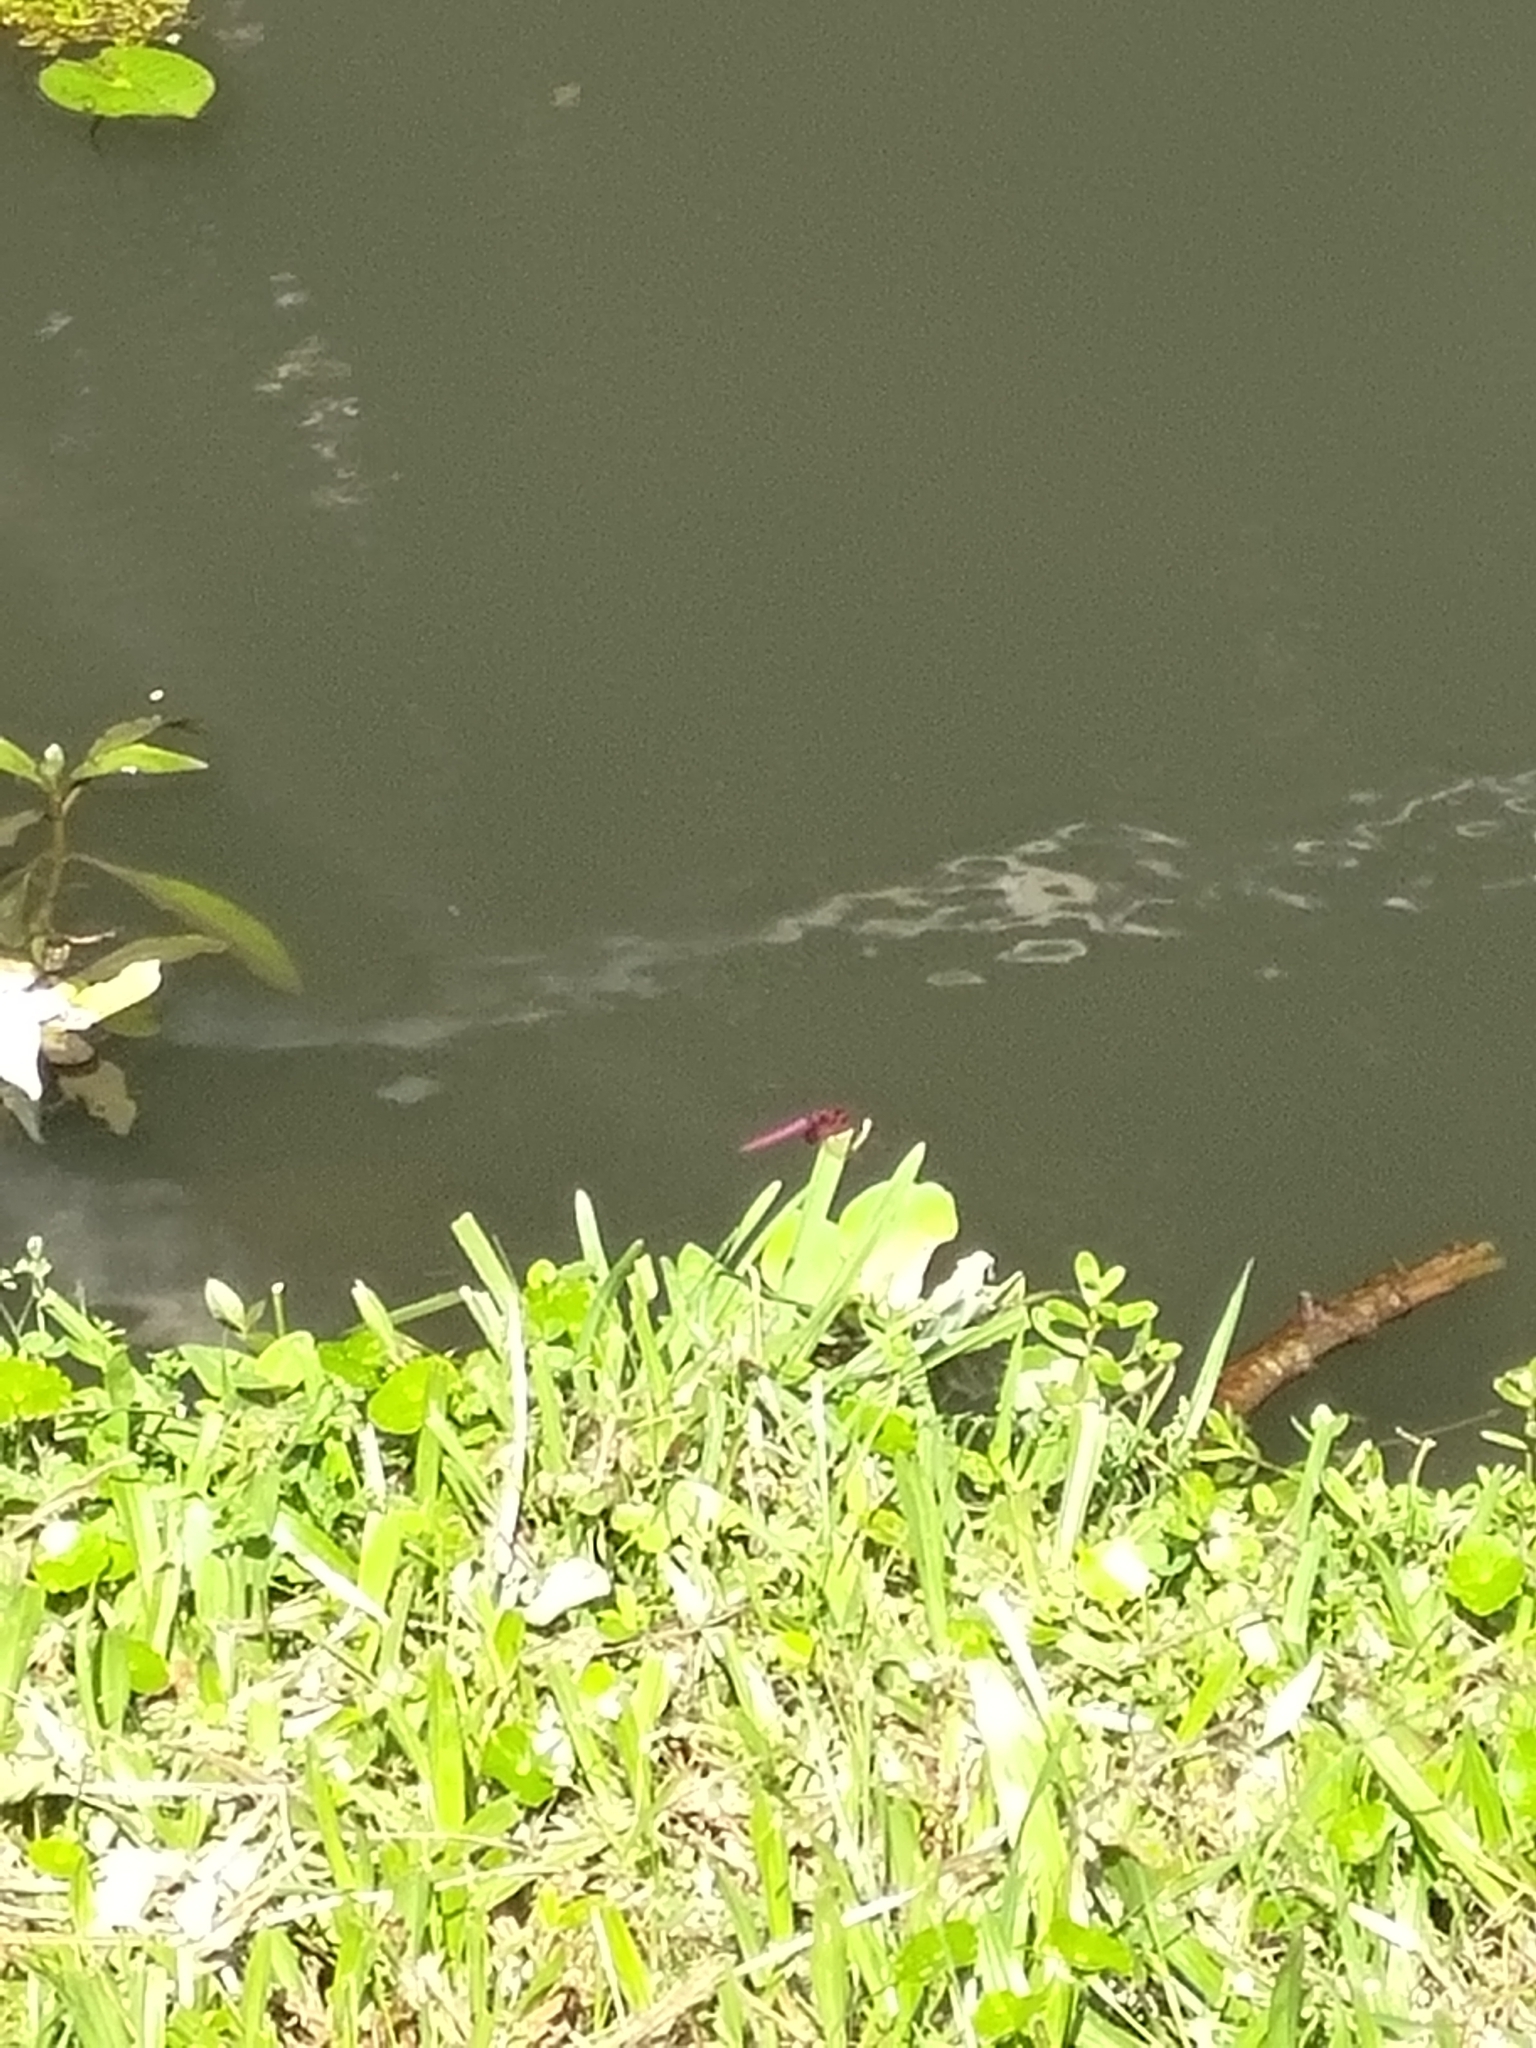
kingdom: Animalia
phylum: Arthropoda
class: Insecta
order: Odonata
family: Libellulidae
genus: Trithemis
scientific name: Trithemis aurora
